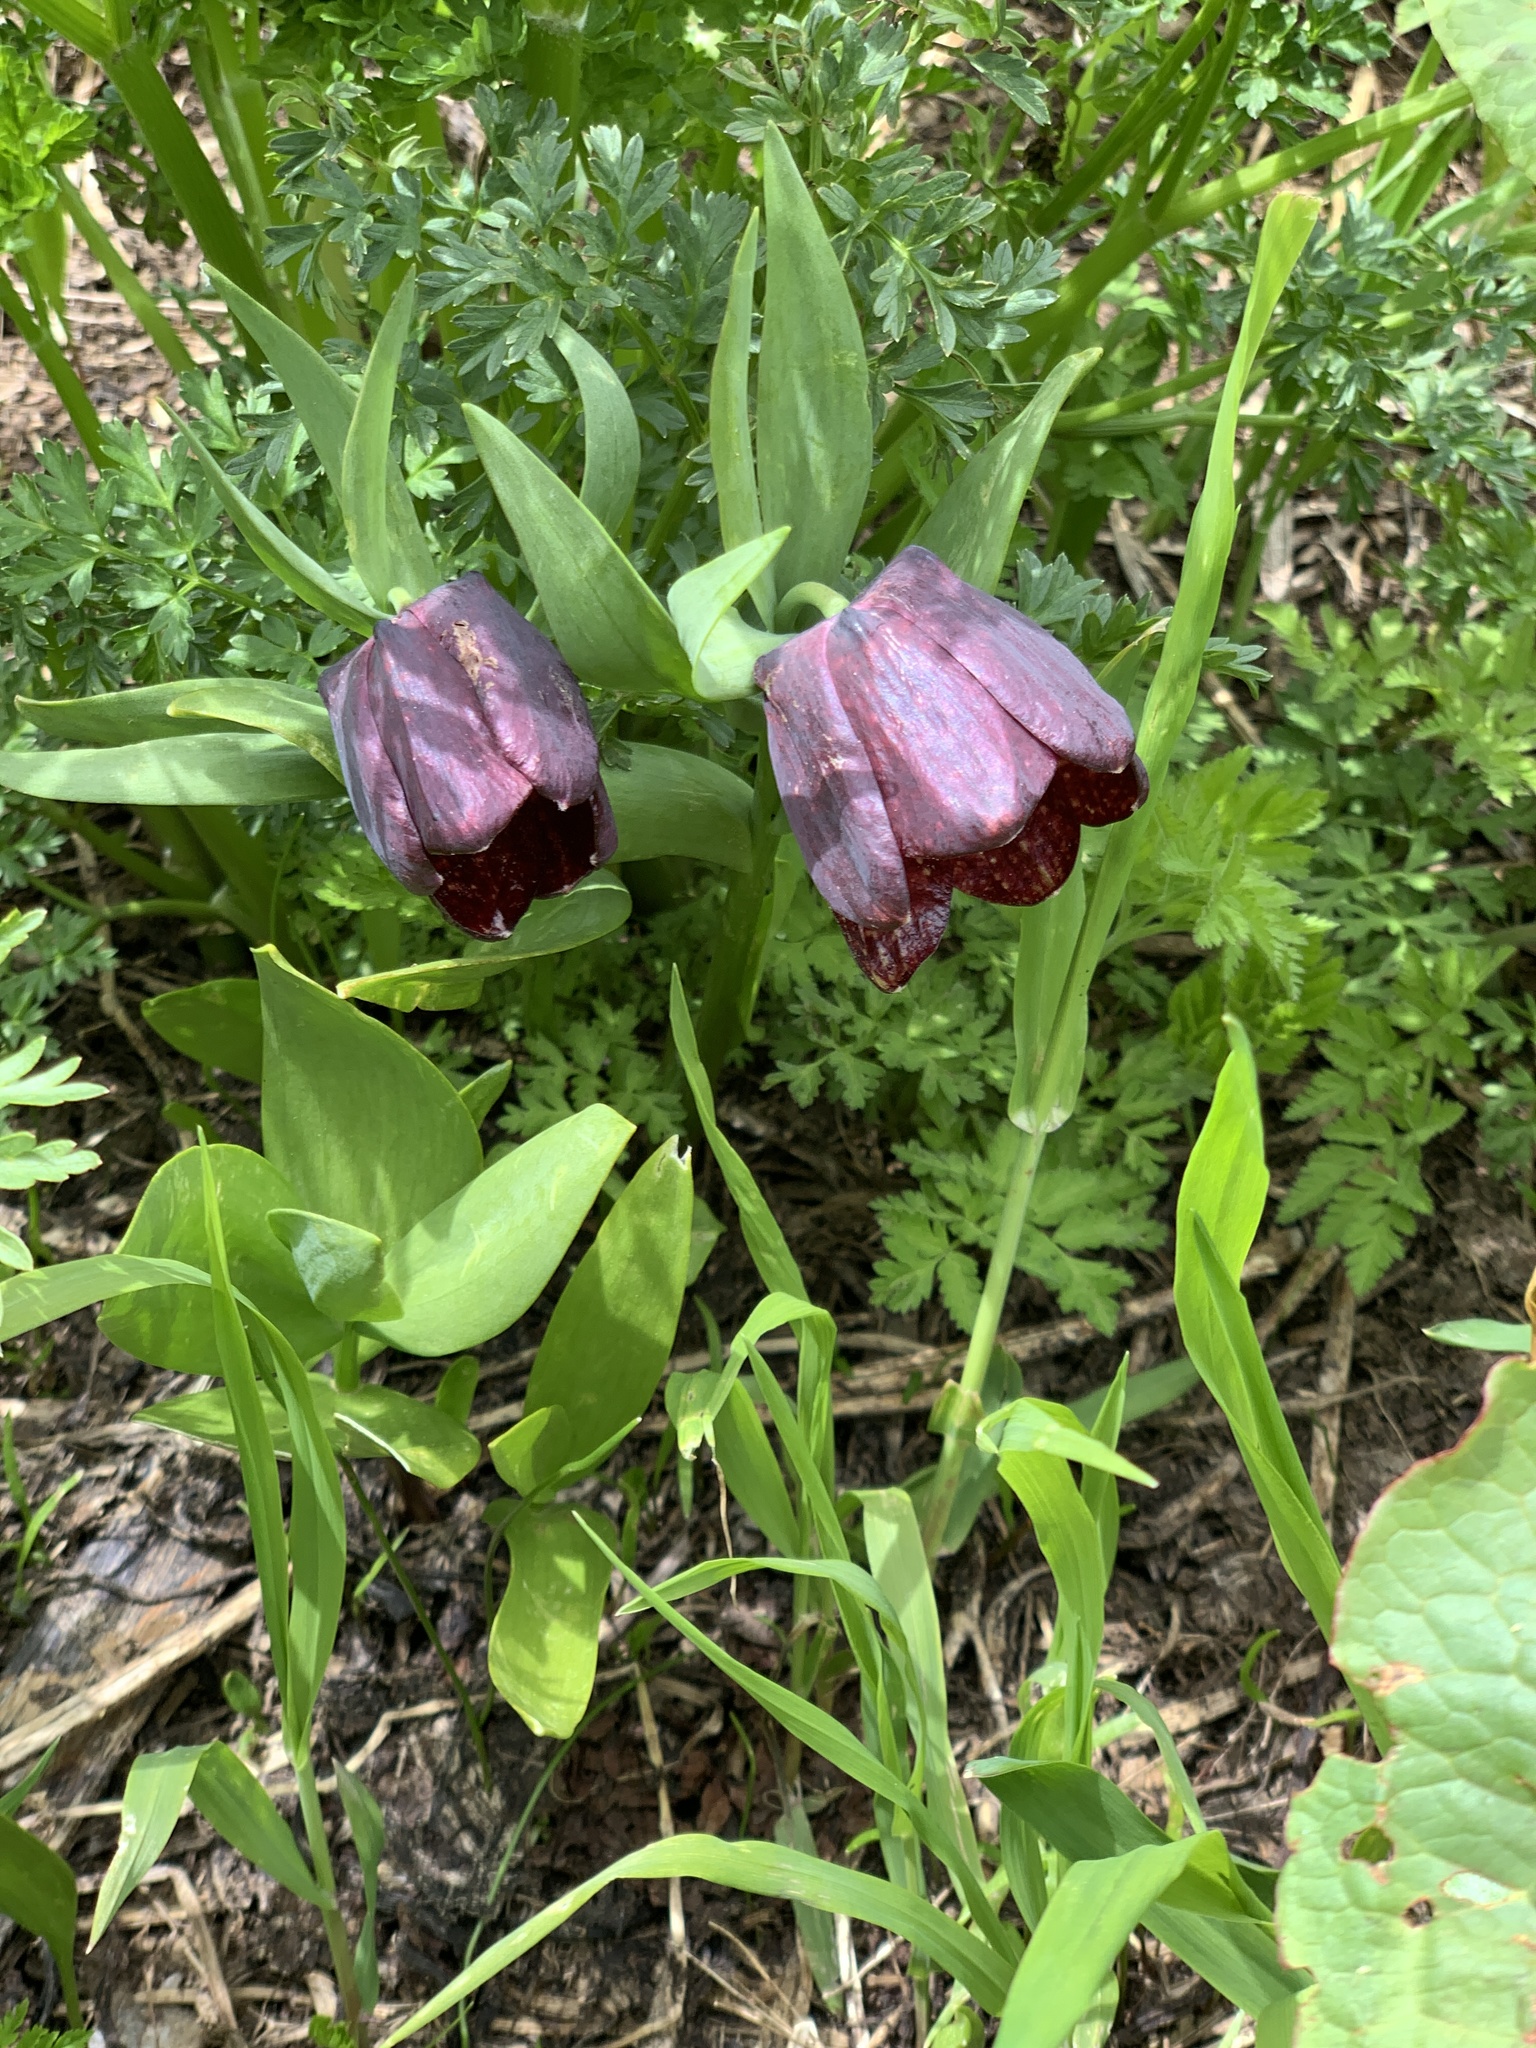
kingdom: Plantae
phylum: Tracheophyta
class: Liliopsida
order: Liliales
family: Liliaceae
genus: Fritillaria
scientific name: Fritillaria latifolia
